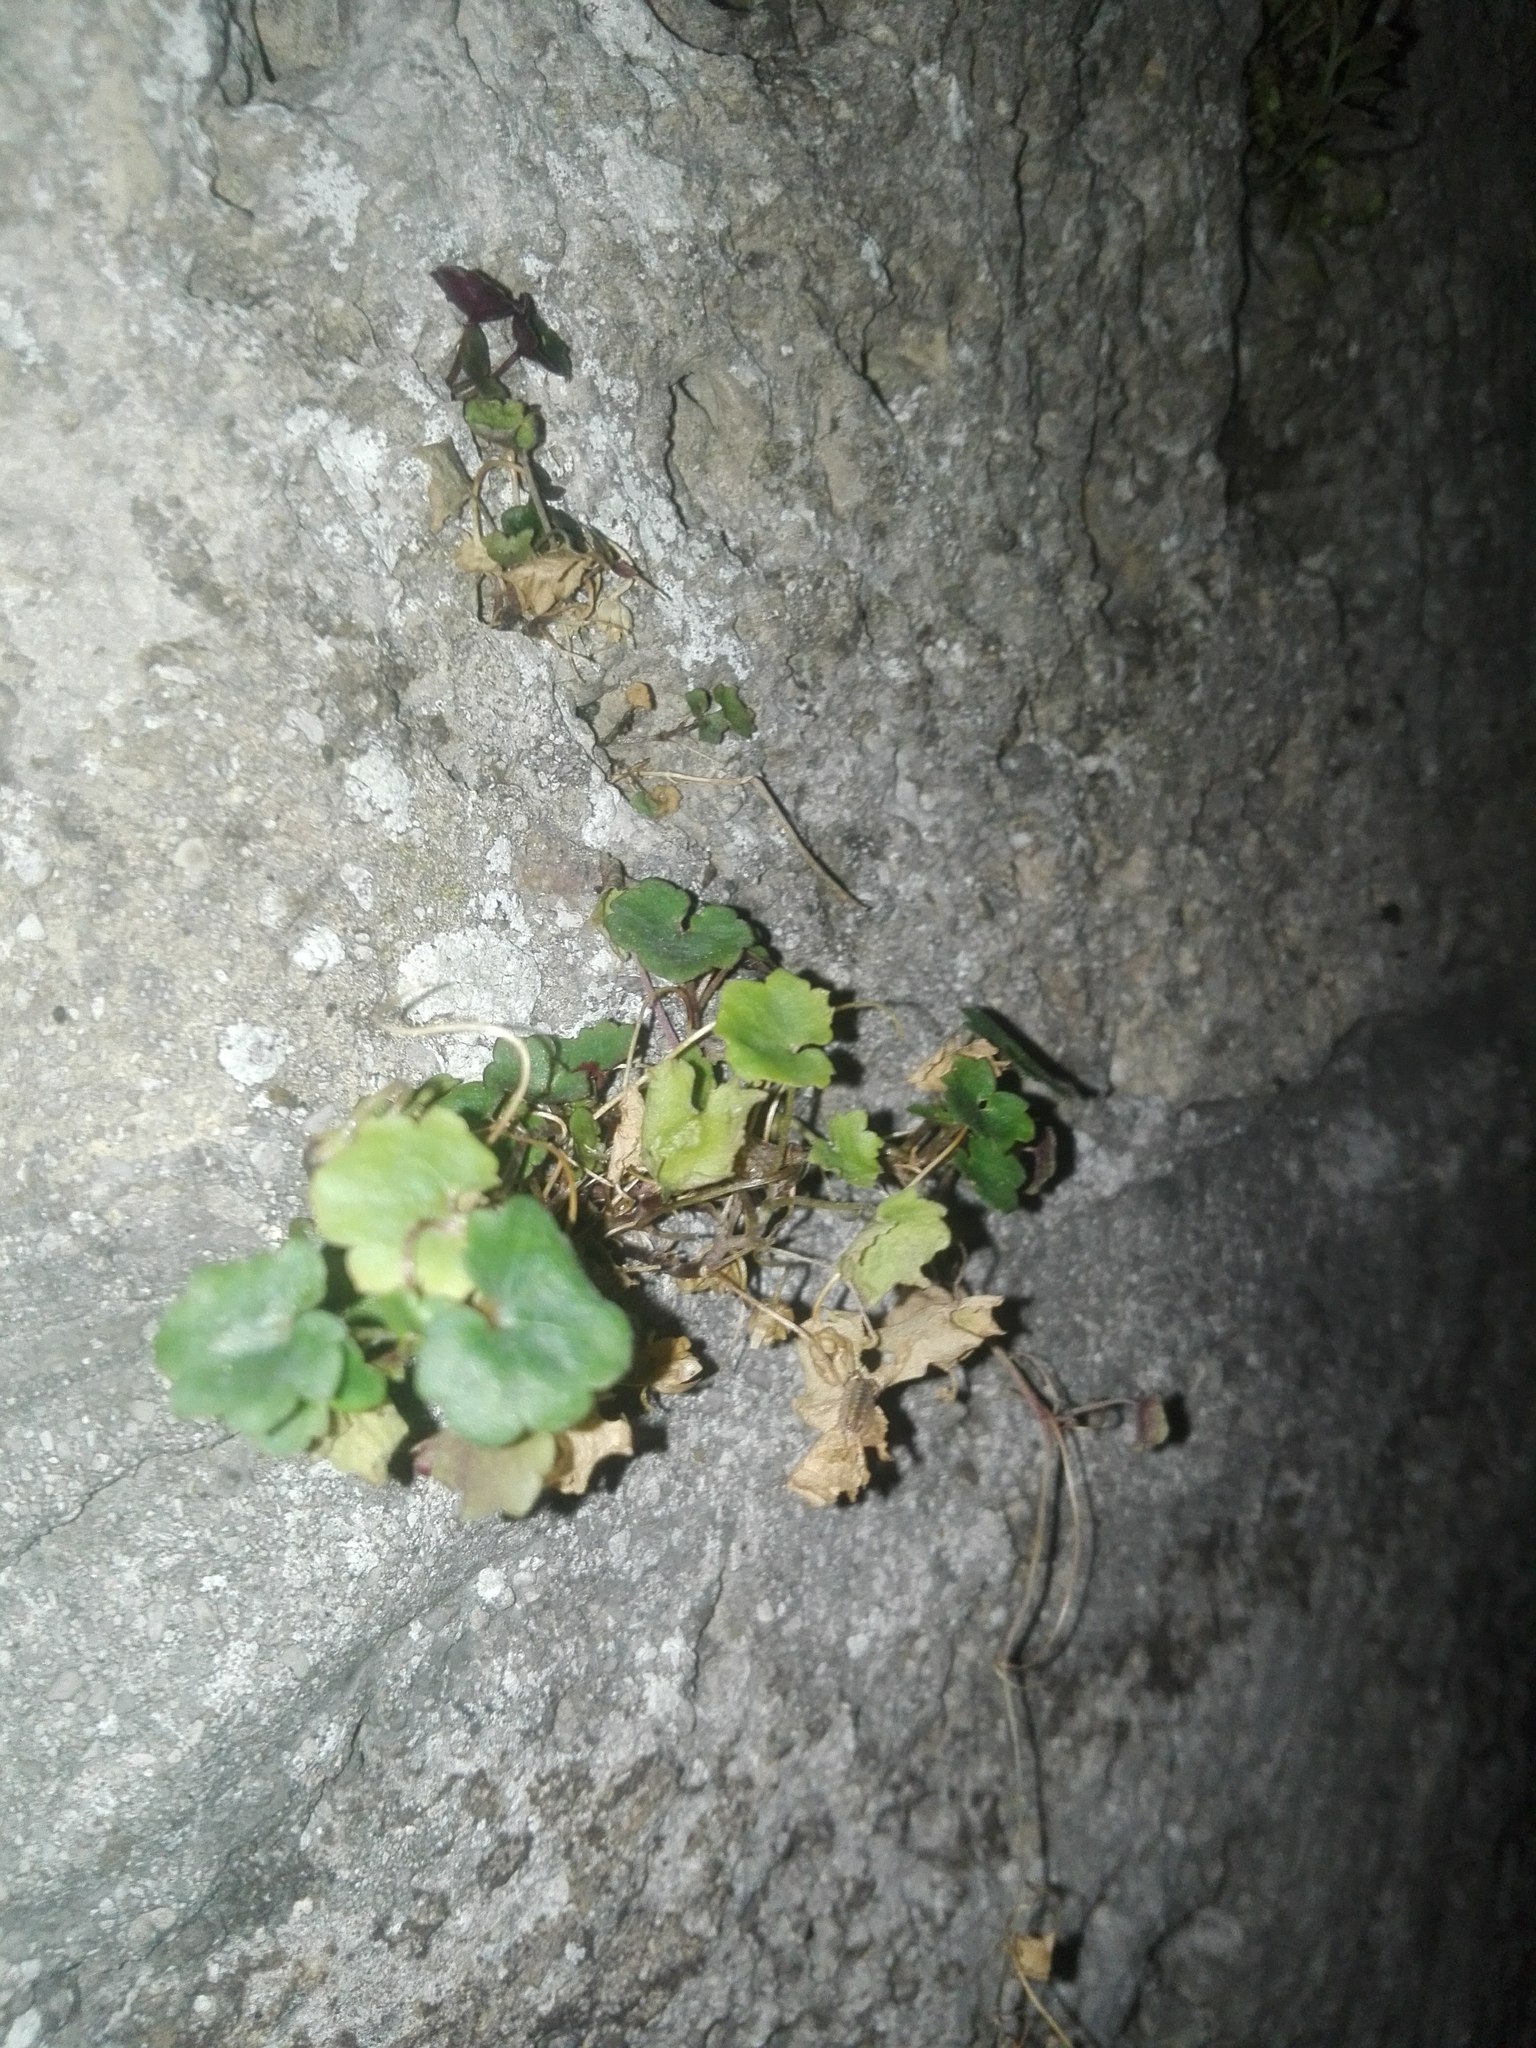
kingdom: Plantae
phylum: Tracheophyta
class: Magnoliopsida
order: Lamiales
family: Plantaginaceae
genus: Cymbalaria
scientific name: Cymbalaria muralis
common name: Ivy-leaved toadflax
